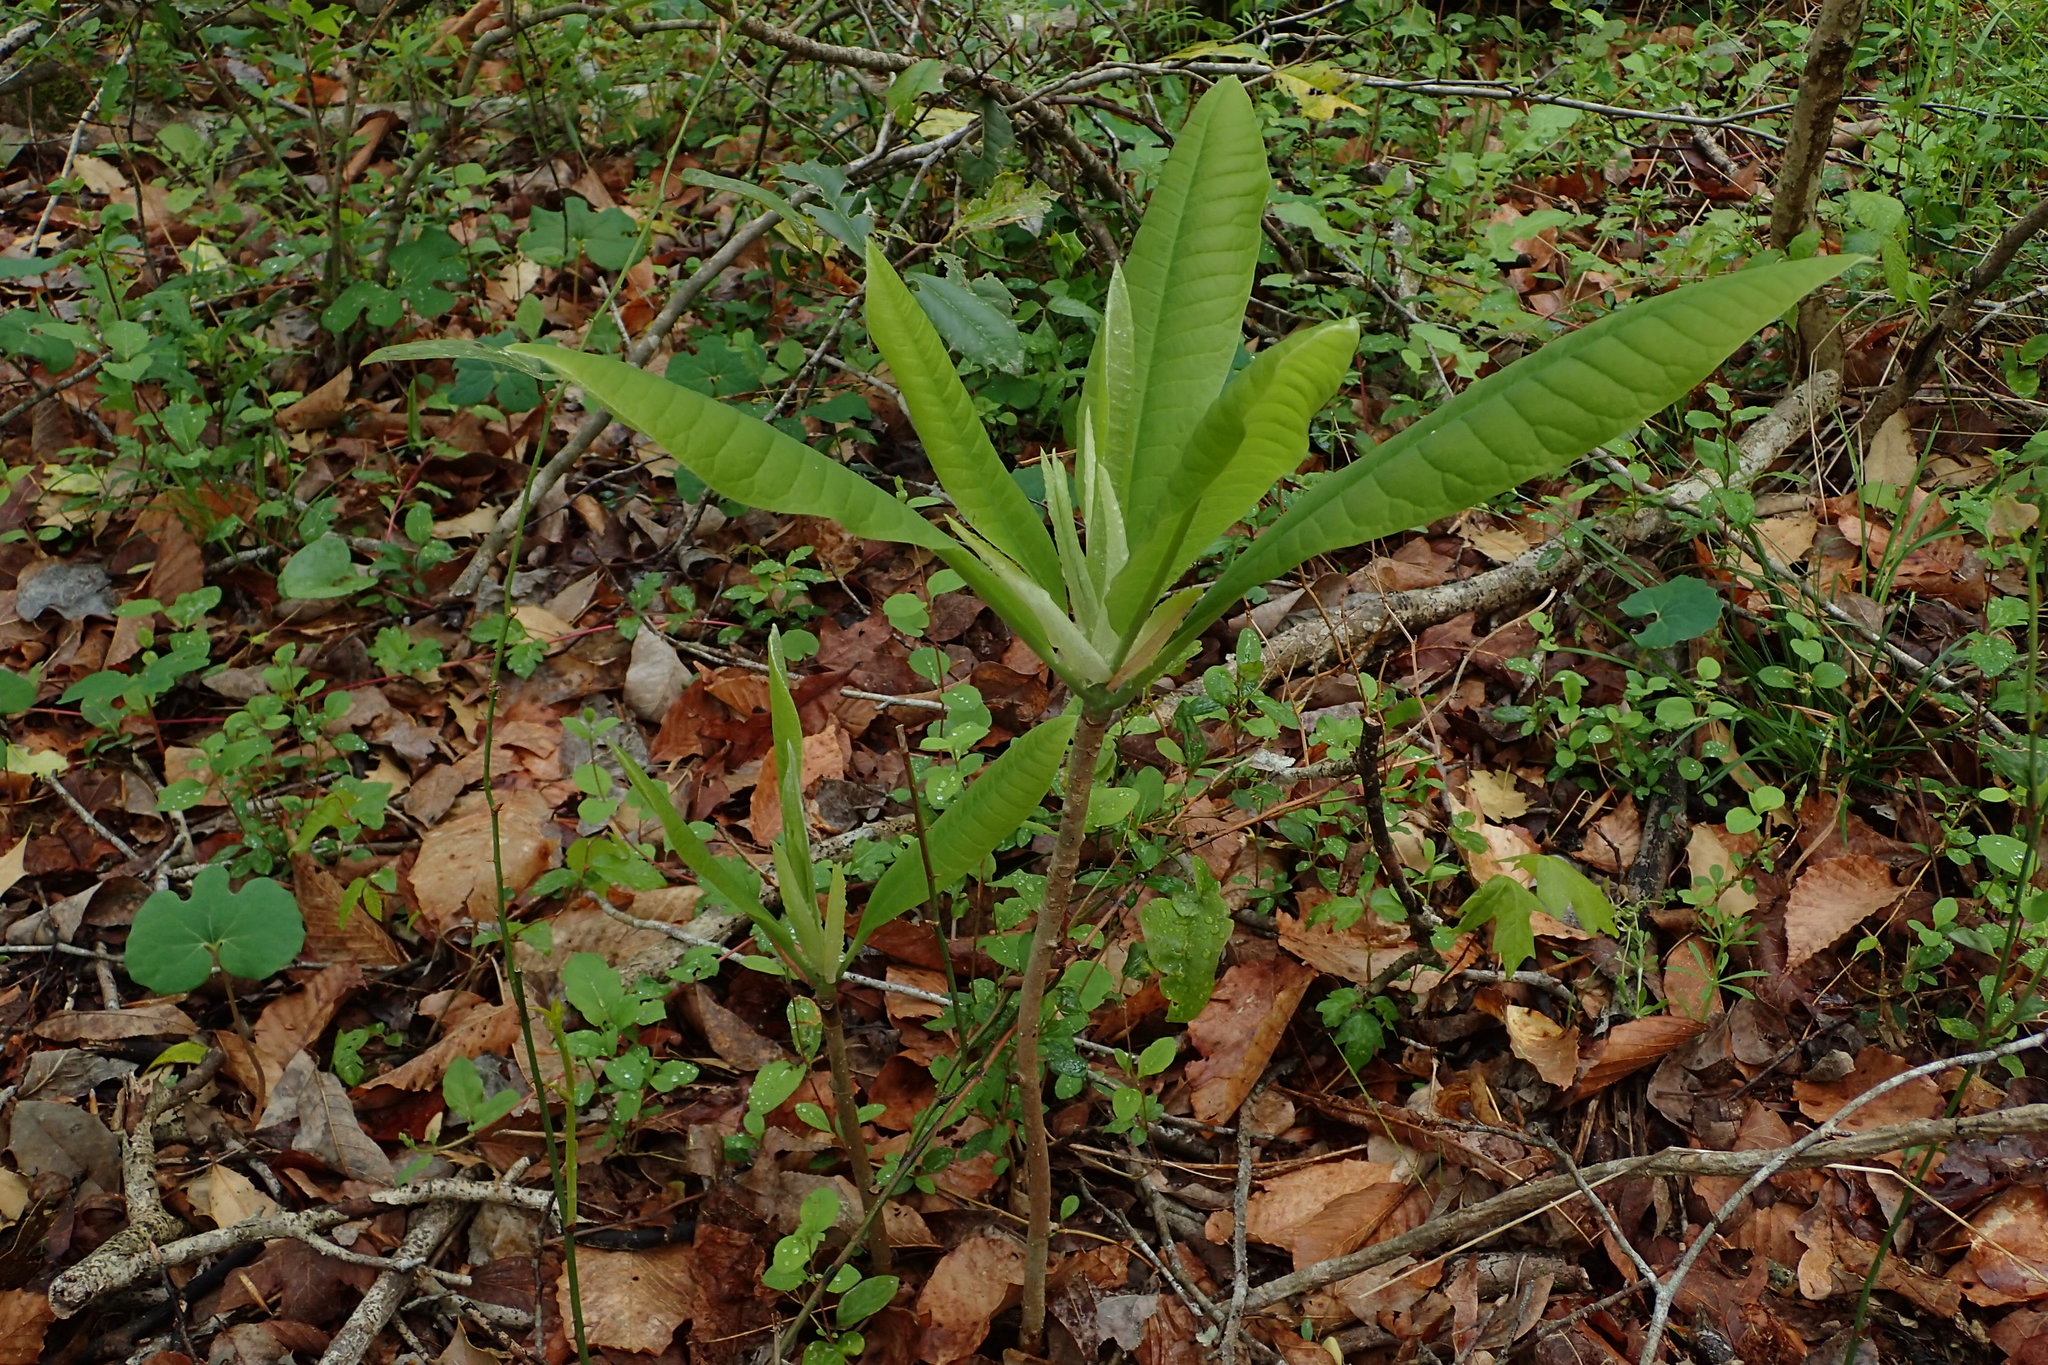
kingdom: Plantae
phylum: Tracheophyta
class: Magnoliopsida
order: Magnoliales
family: Magnoliaceae
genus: Magnolia
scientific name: Magnolia tripetala
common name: Umbrella magnolia
